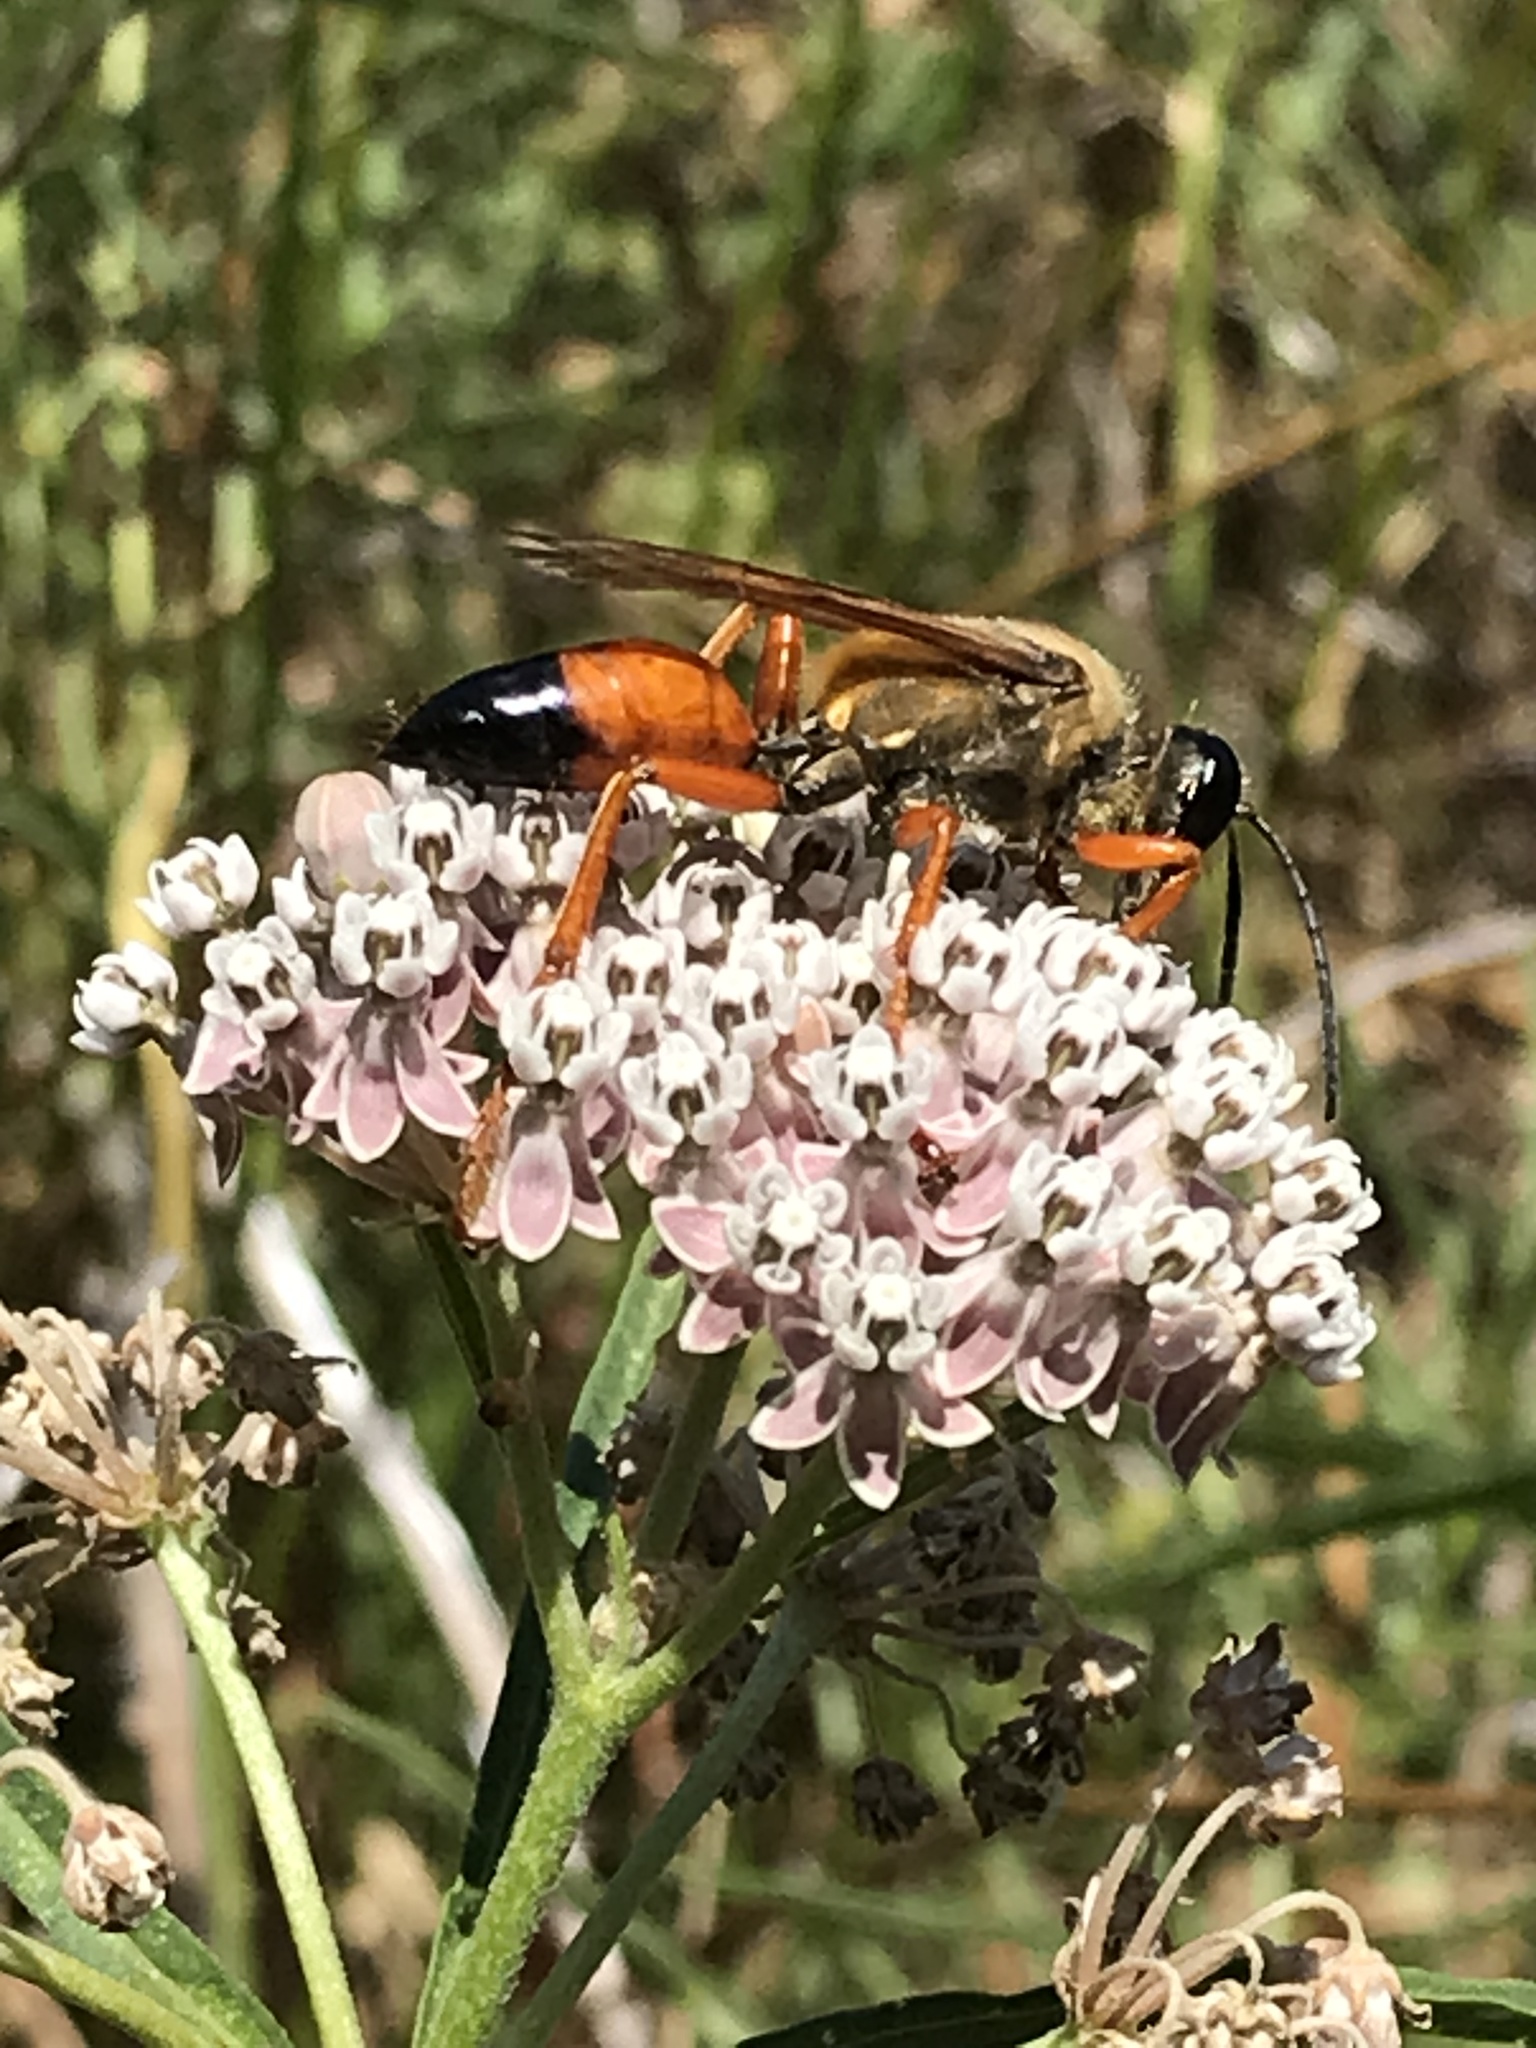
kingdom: Animalia
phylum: Arthropoda
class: Insecta
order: Hymenoptera
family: Sphecidae
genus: Sphex
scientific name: Sphex ichneumoneus
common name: Great golden digger wasp
